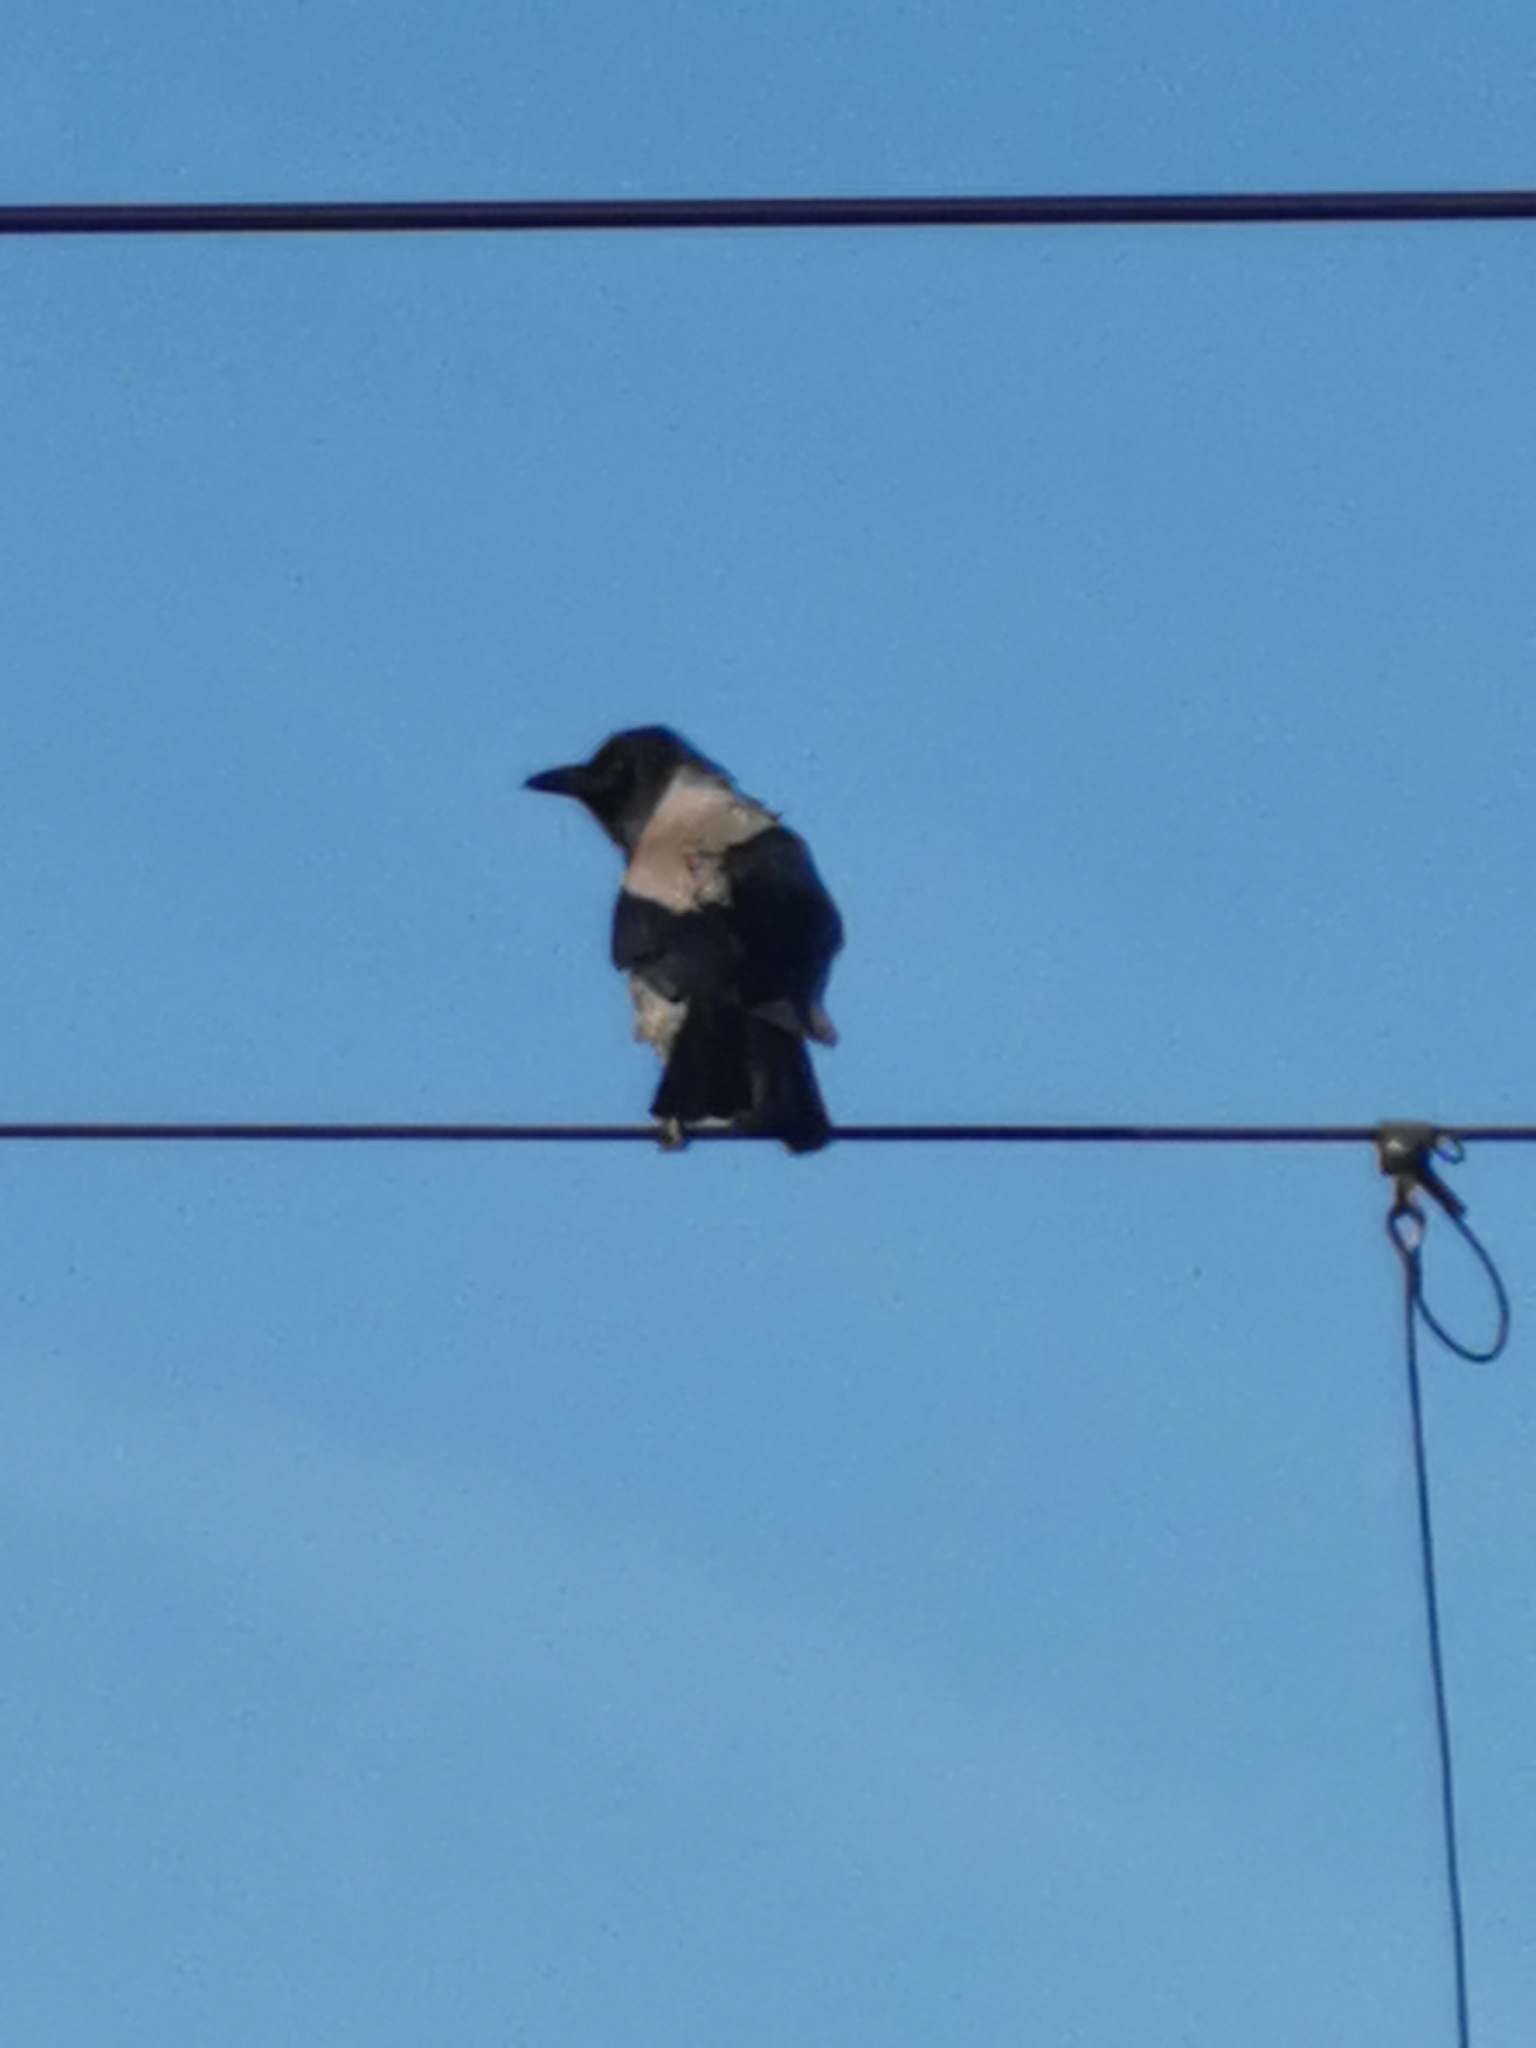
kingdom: Animalia
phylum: Chordata
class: Aves
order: Passeriformes
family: Corvidae
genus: Corvus
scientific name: Corvus cornix
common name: Hooded crow
